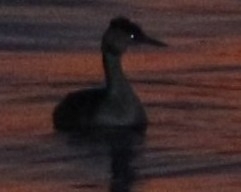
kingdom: Animalia
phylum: Chordata
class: Aves
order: Podicipediformes
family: Podicipedidae
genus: Podiceps
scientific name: Podiceps cristatus
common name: Great crested grebe
